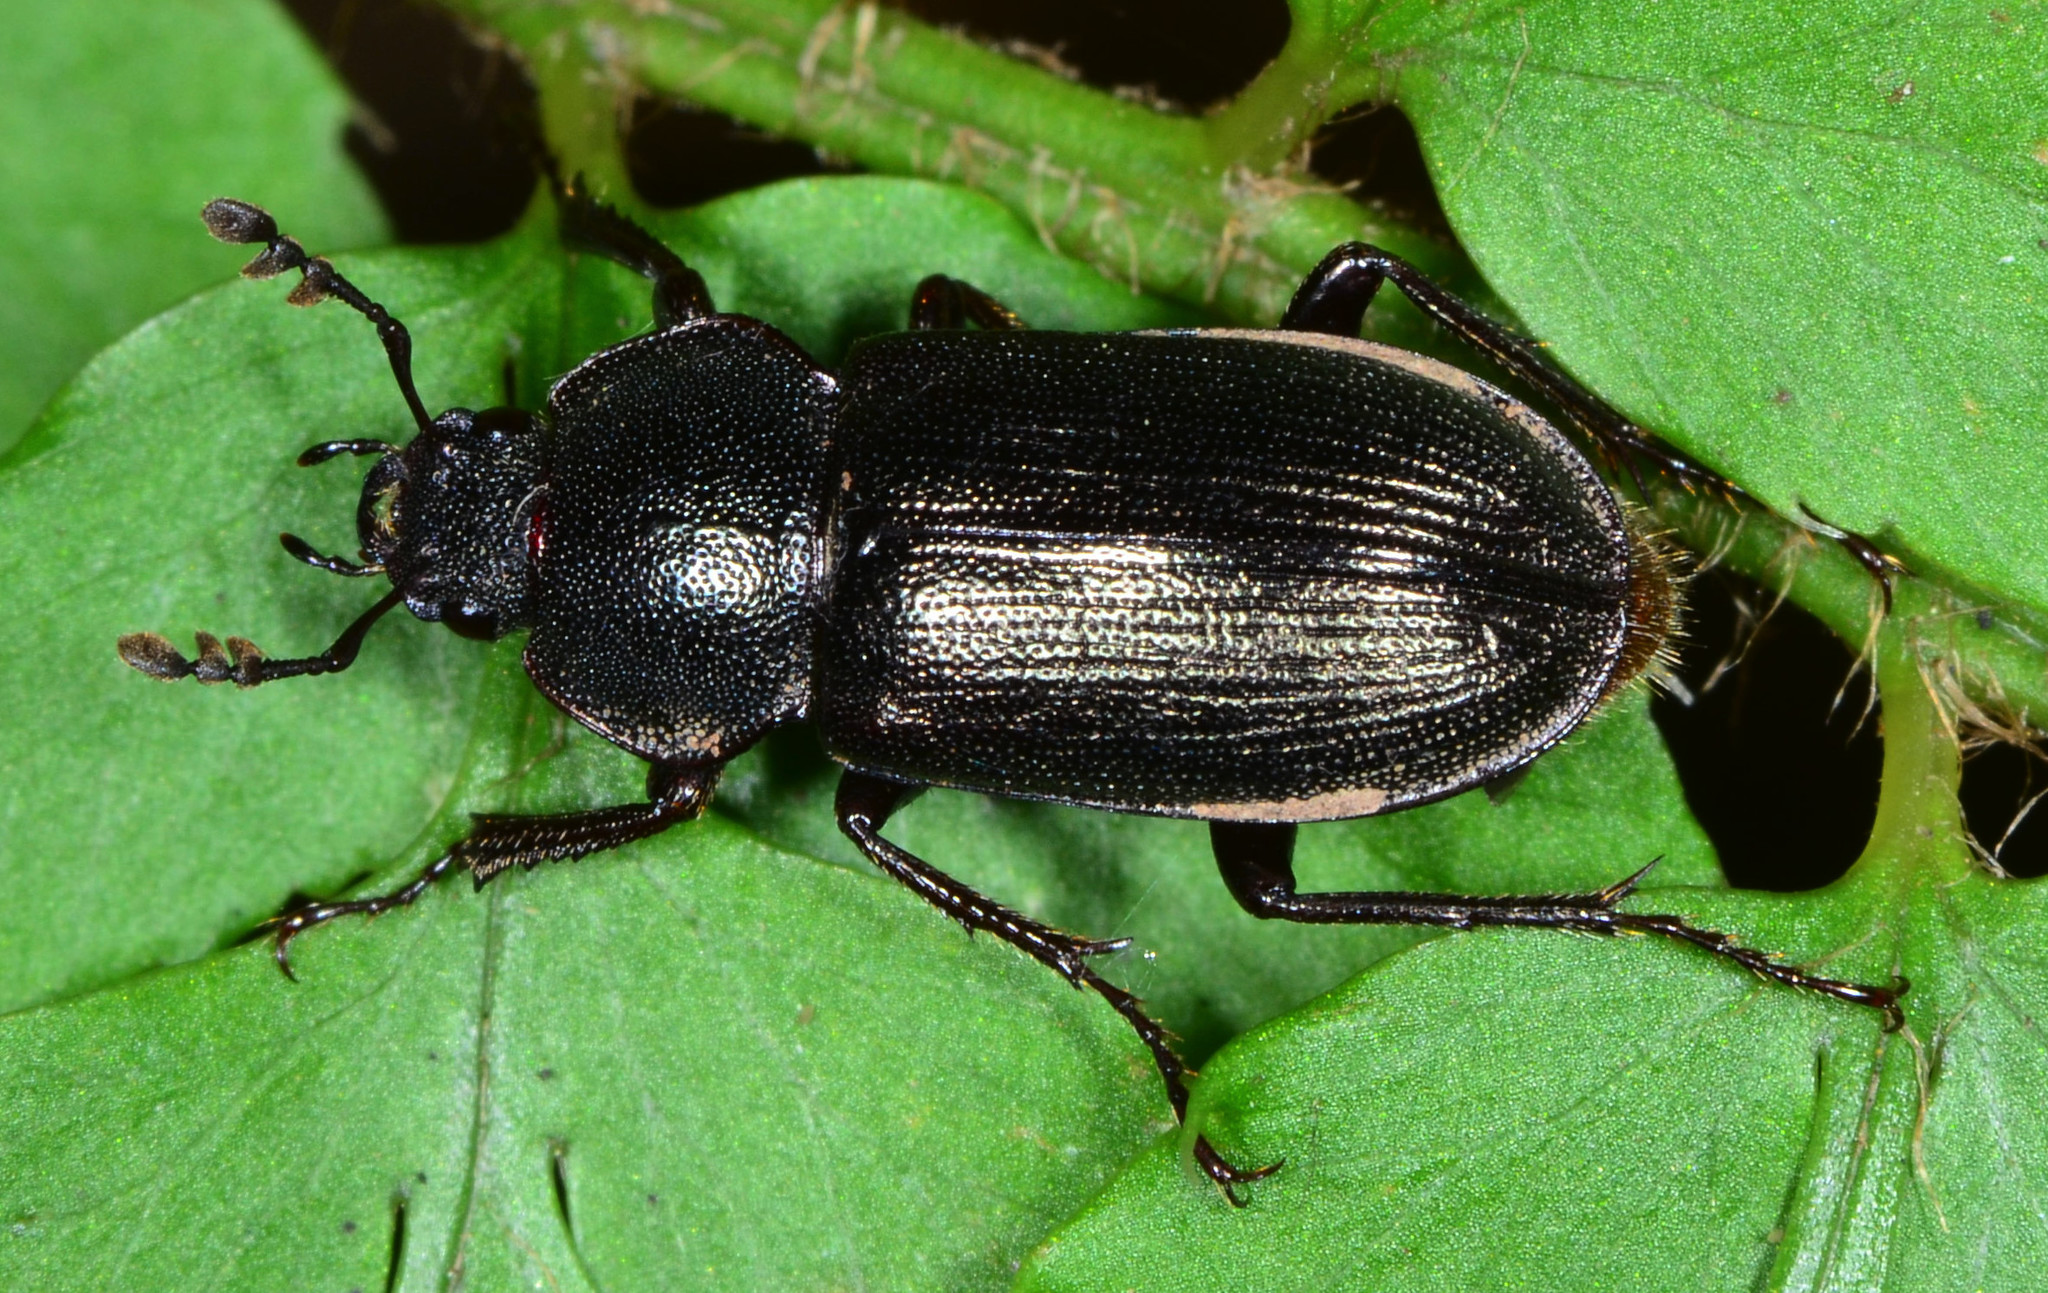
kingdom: Animalia
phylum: Arthropoda
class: Insecta
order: Coleoptera
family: Lucanidae
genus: Platyceroides
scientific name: Platyceroides infernus
